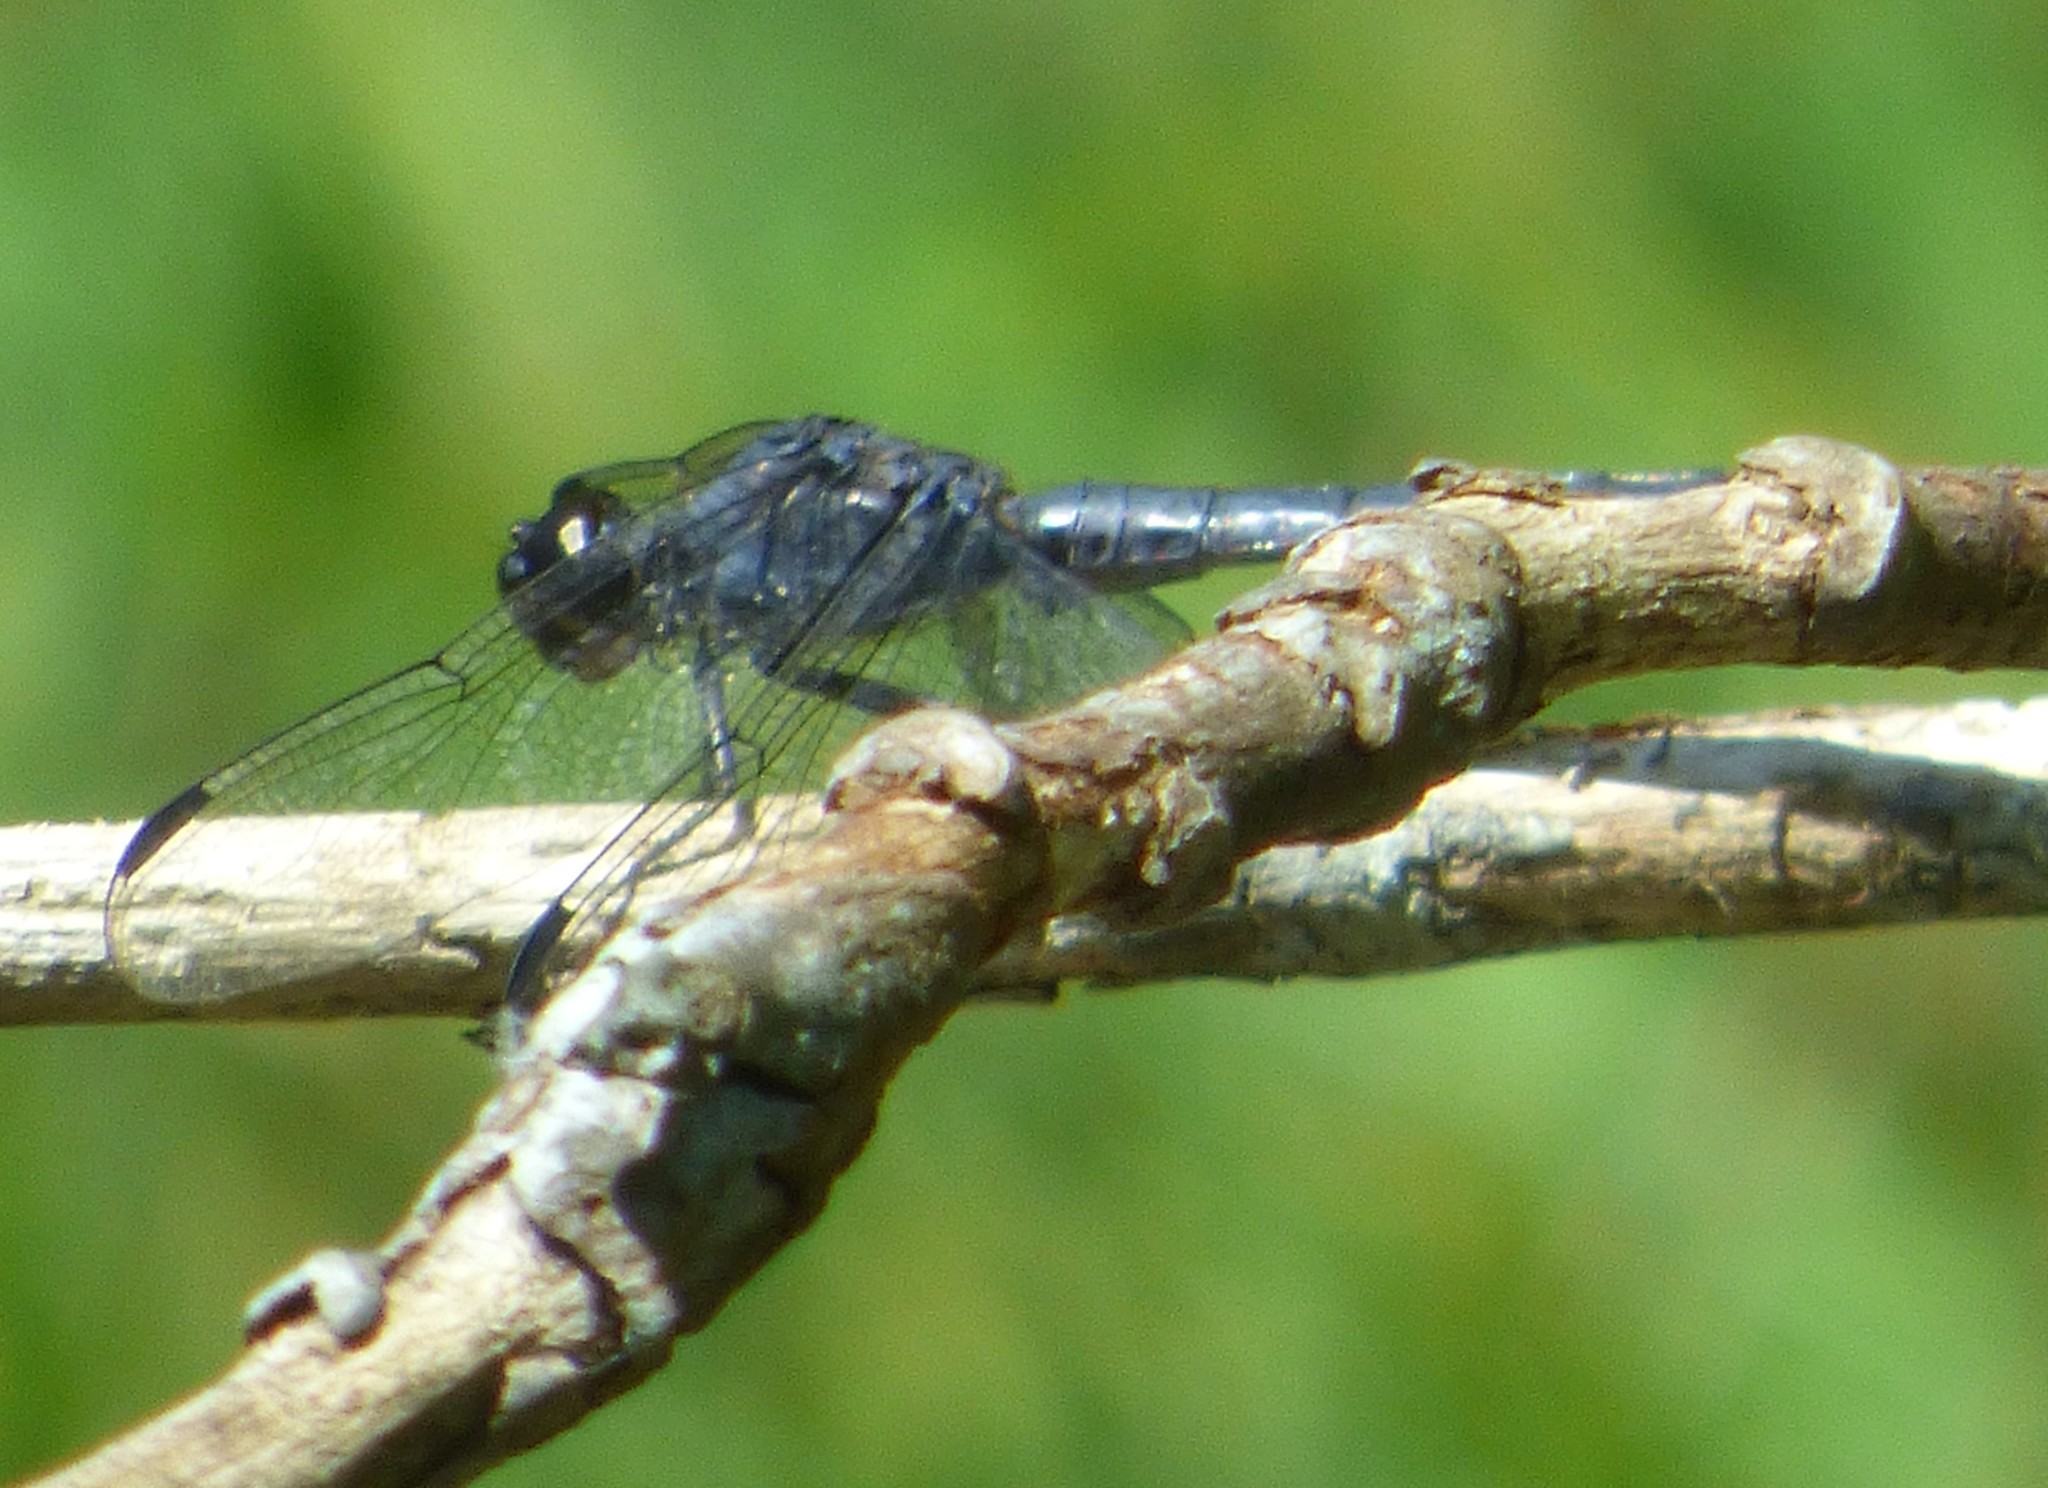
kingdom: Animalia
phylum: Arthropoda
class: Insecta
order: Odonata
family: Libellulidae
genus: Libellula
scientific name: Libellula incesta
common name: Slaty skimmer
